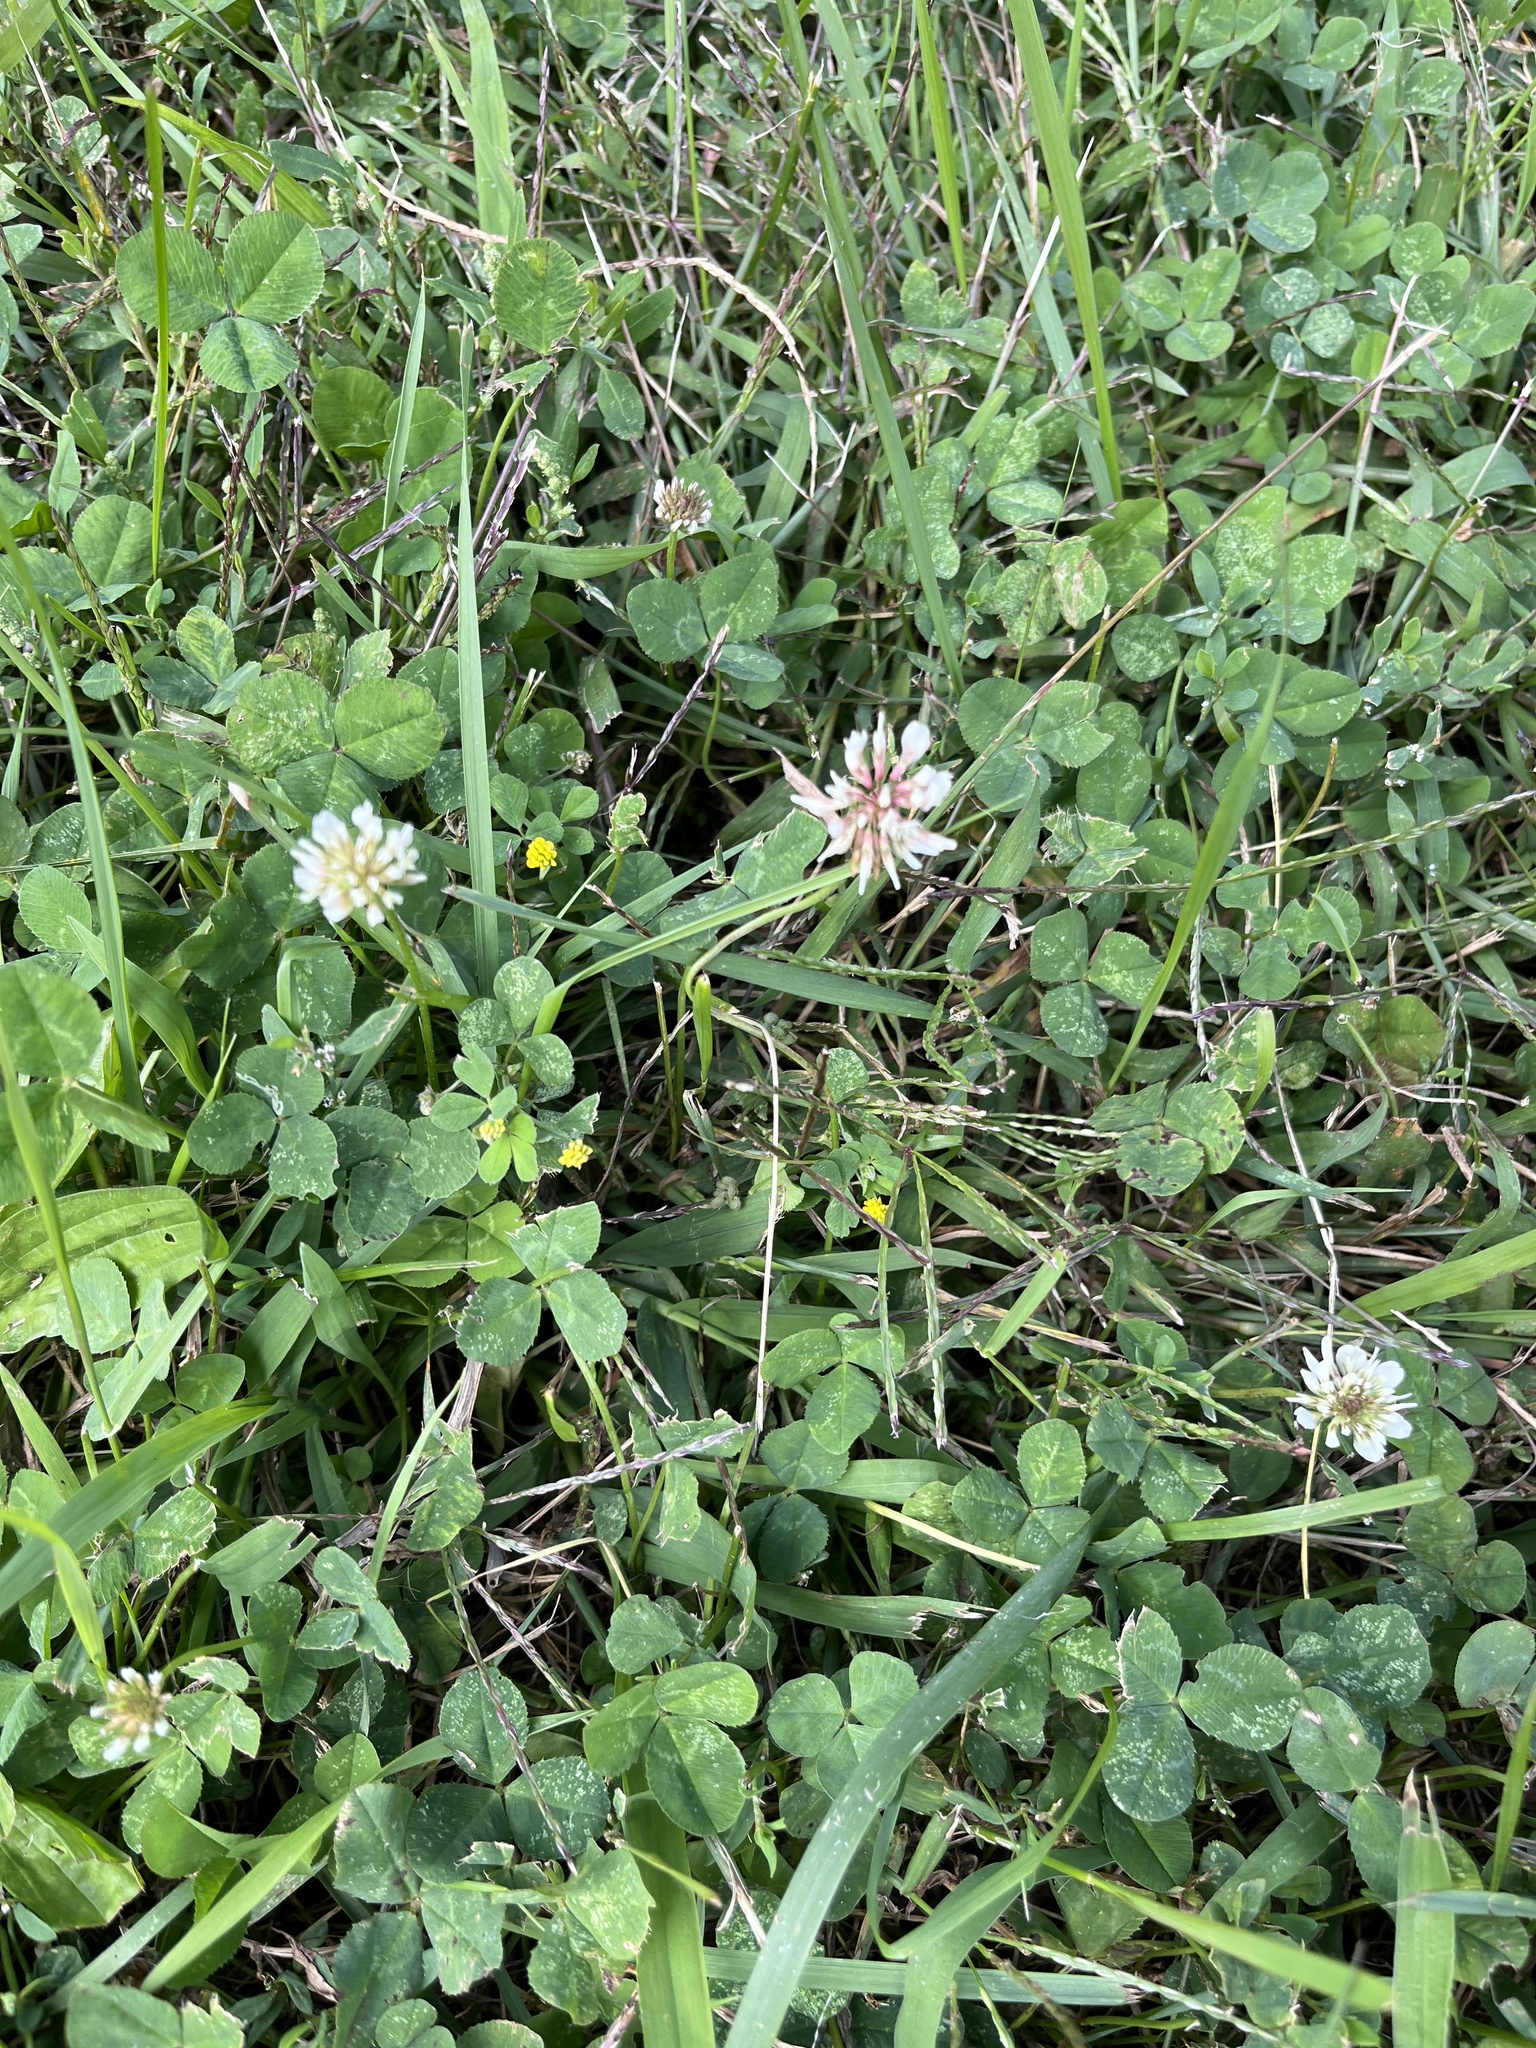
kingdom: Plantae
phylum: Tracheophyta
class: Magnoliopsida
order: Fabales
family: Fabaceae
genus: Trifolium
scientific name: Trifolium repens
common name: White clover
